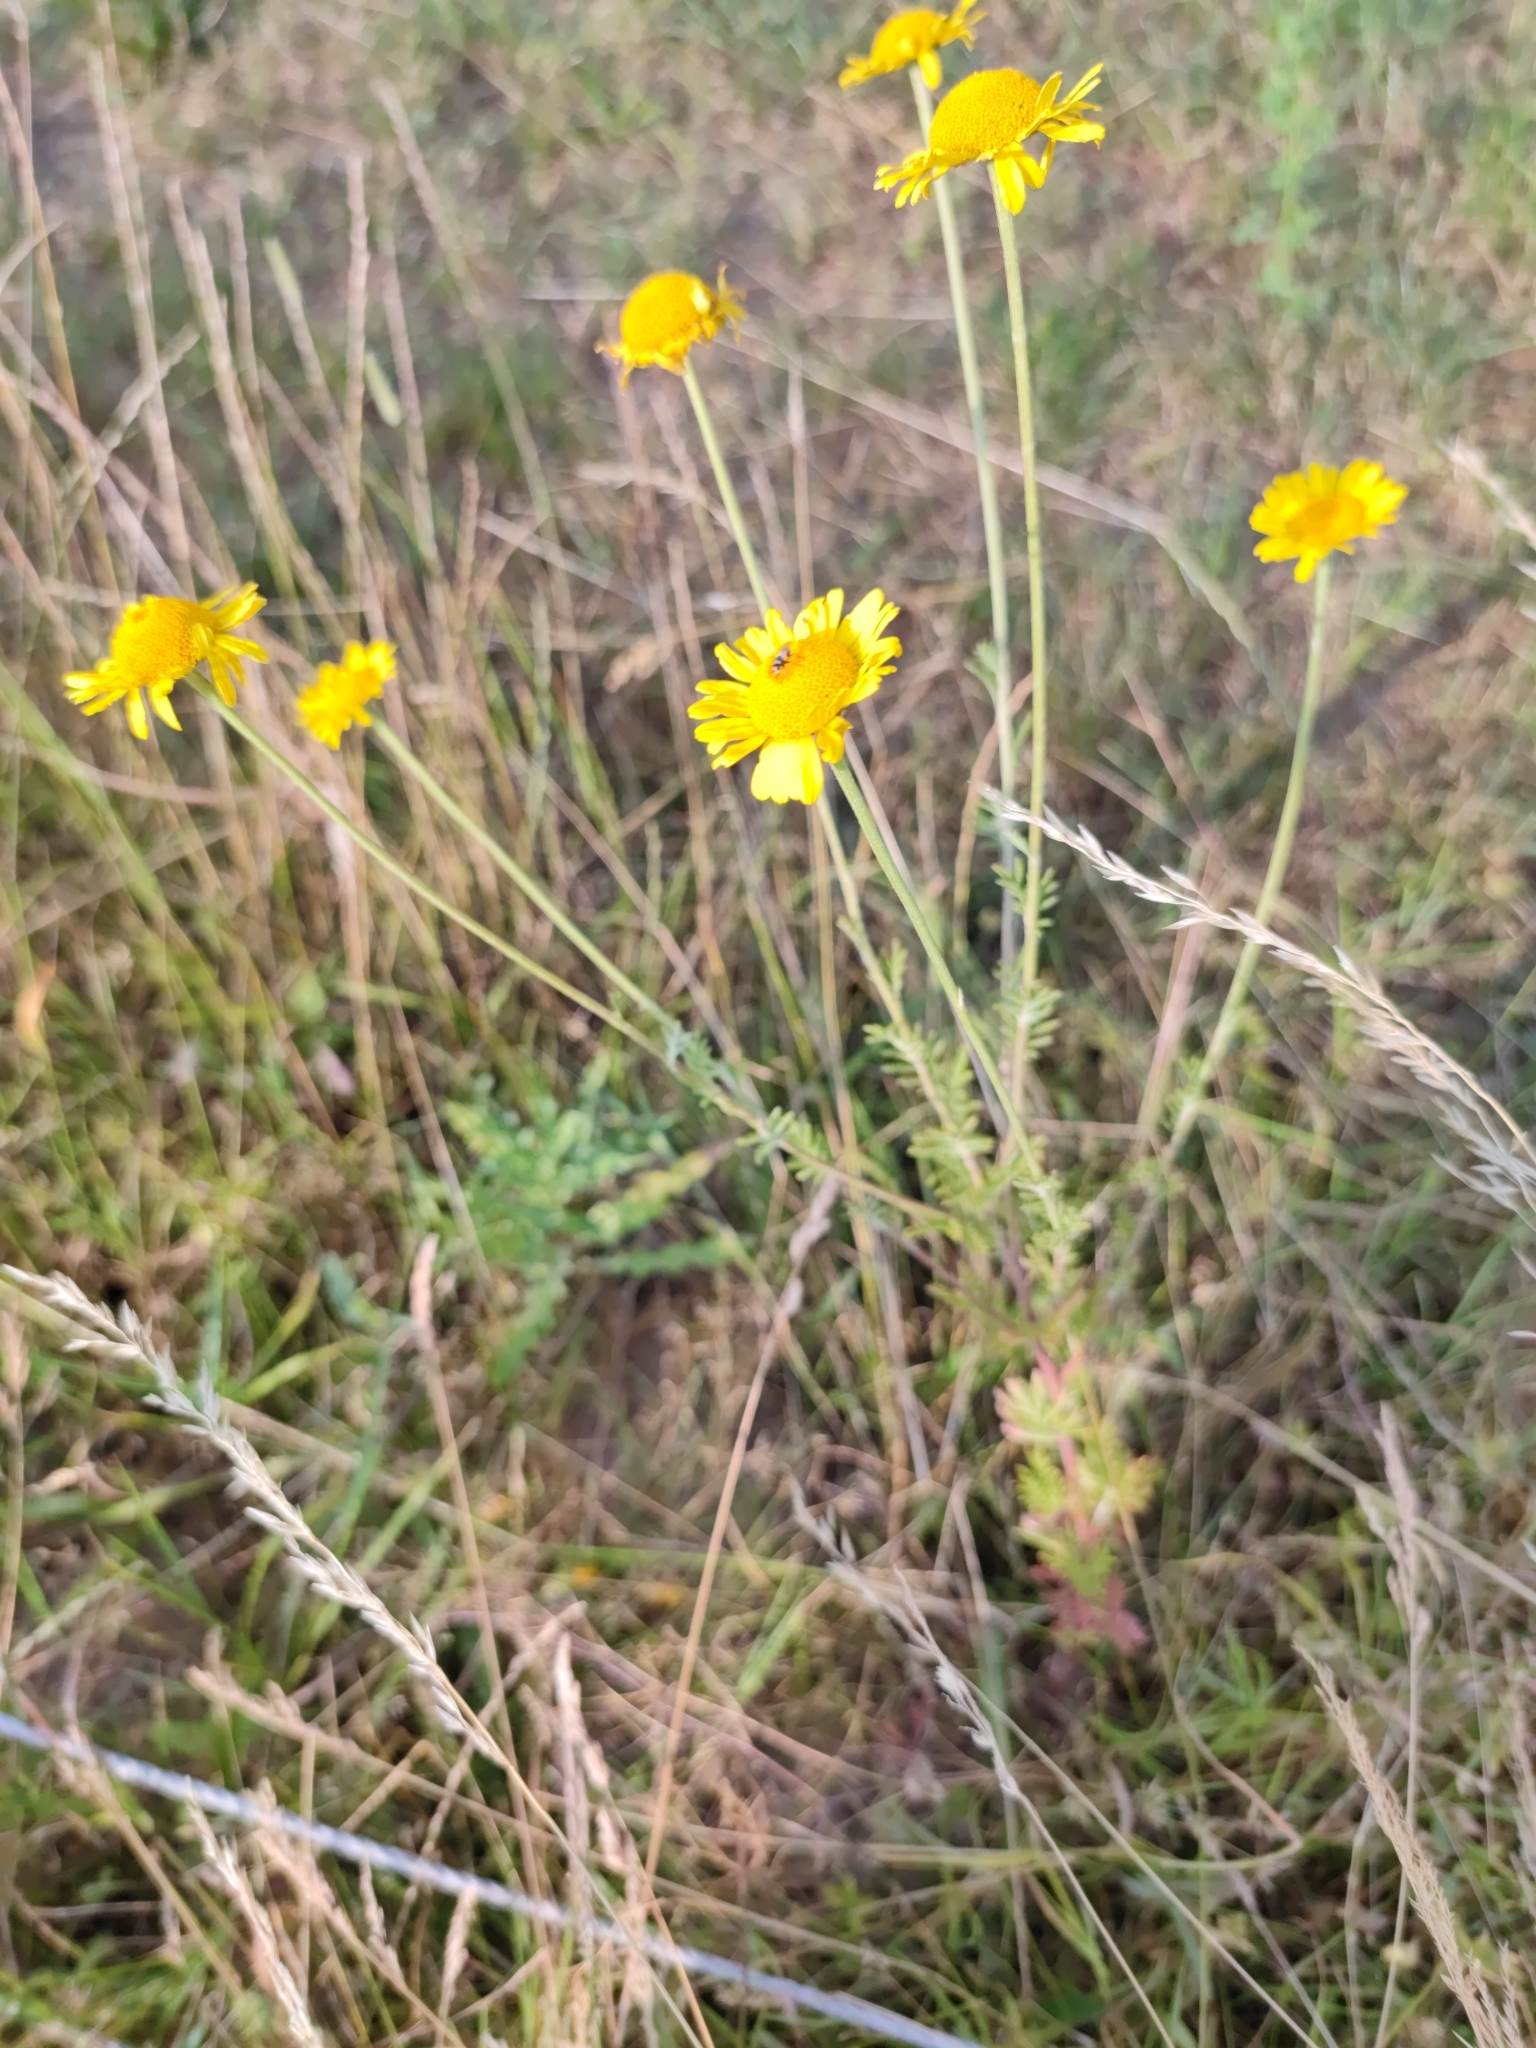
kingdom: Plantae
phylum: Tracheophyta
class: Magnoliopsida
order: Asterales
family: Asteraceae
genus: Cota
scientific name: Cota tinctoria
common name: Golden chamomile
